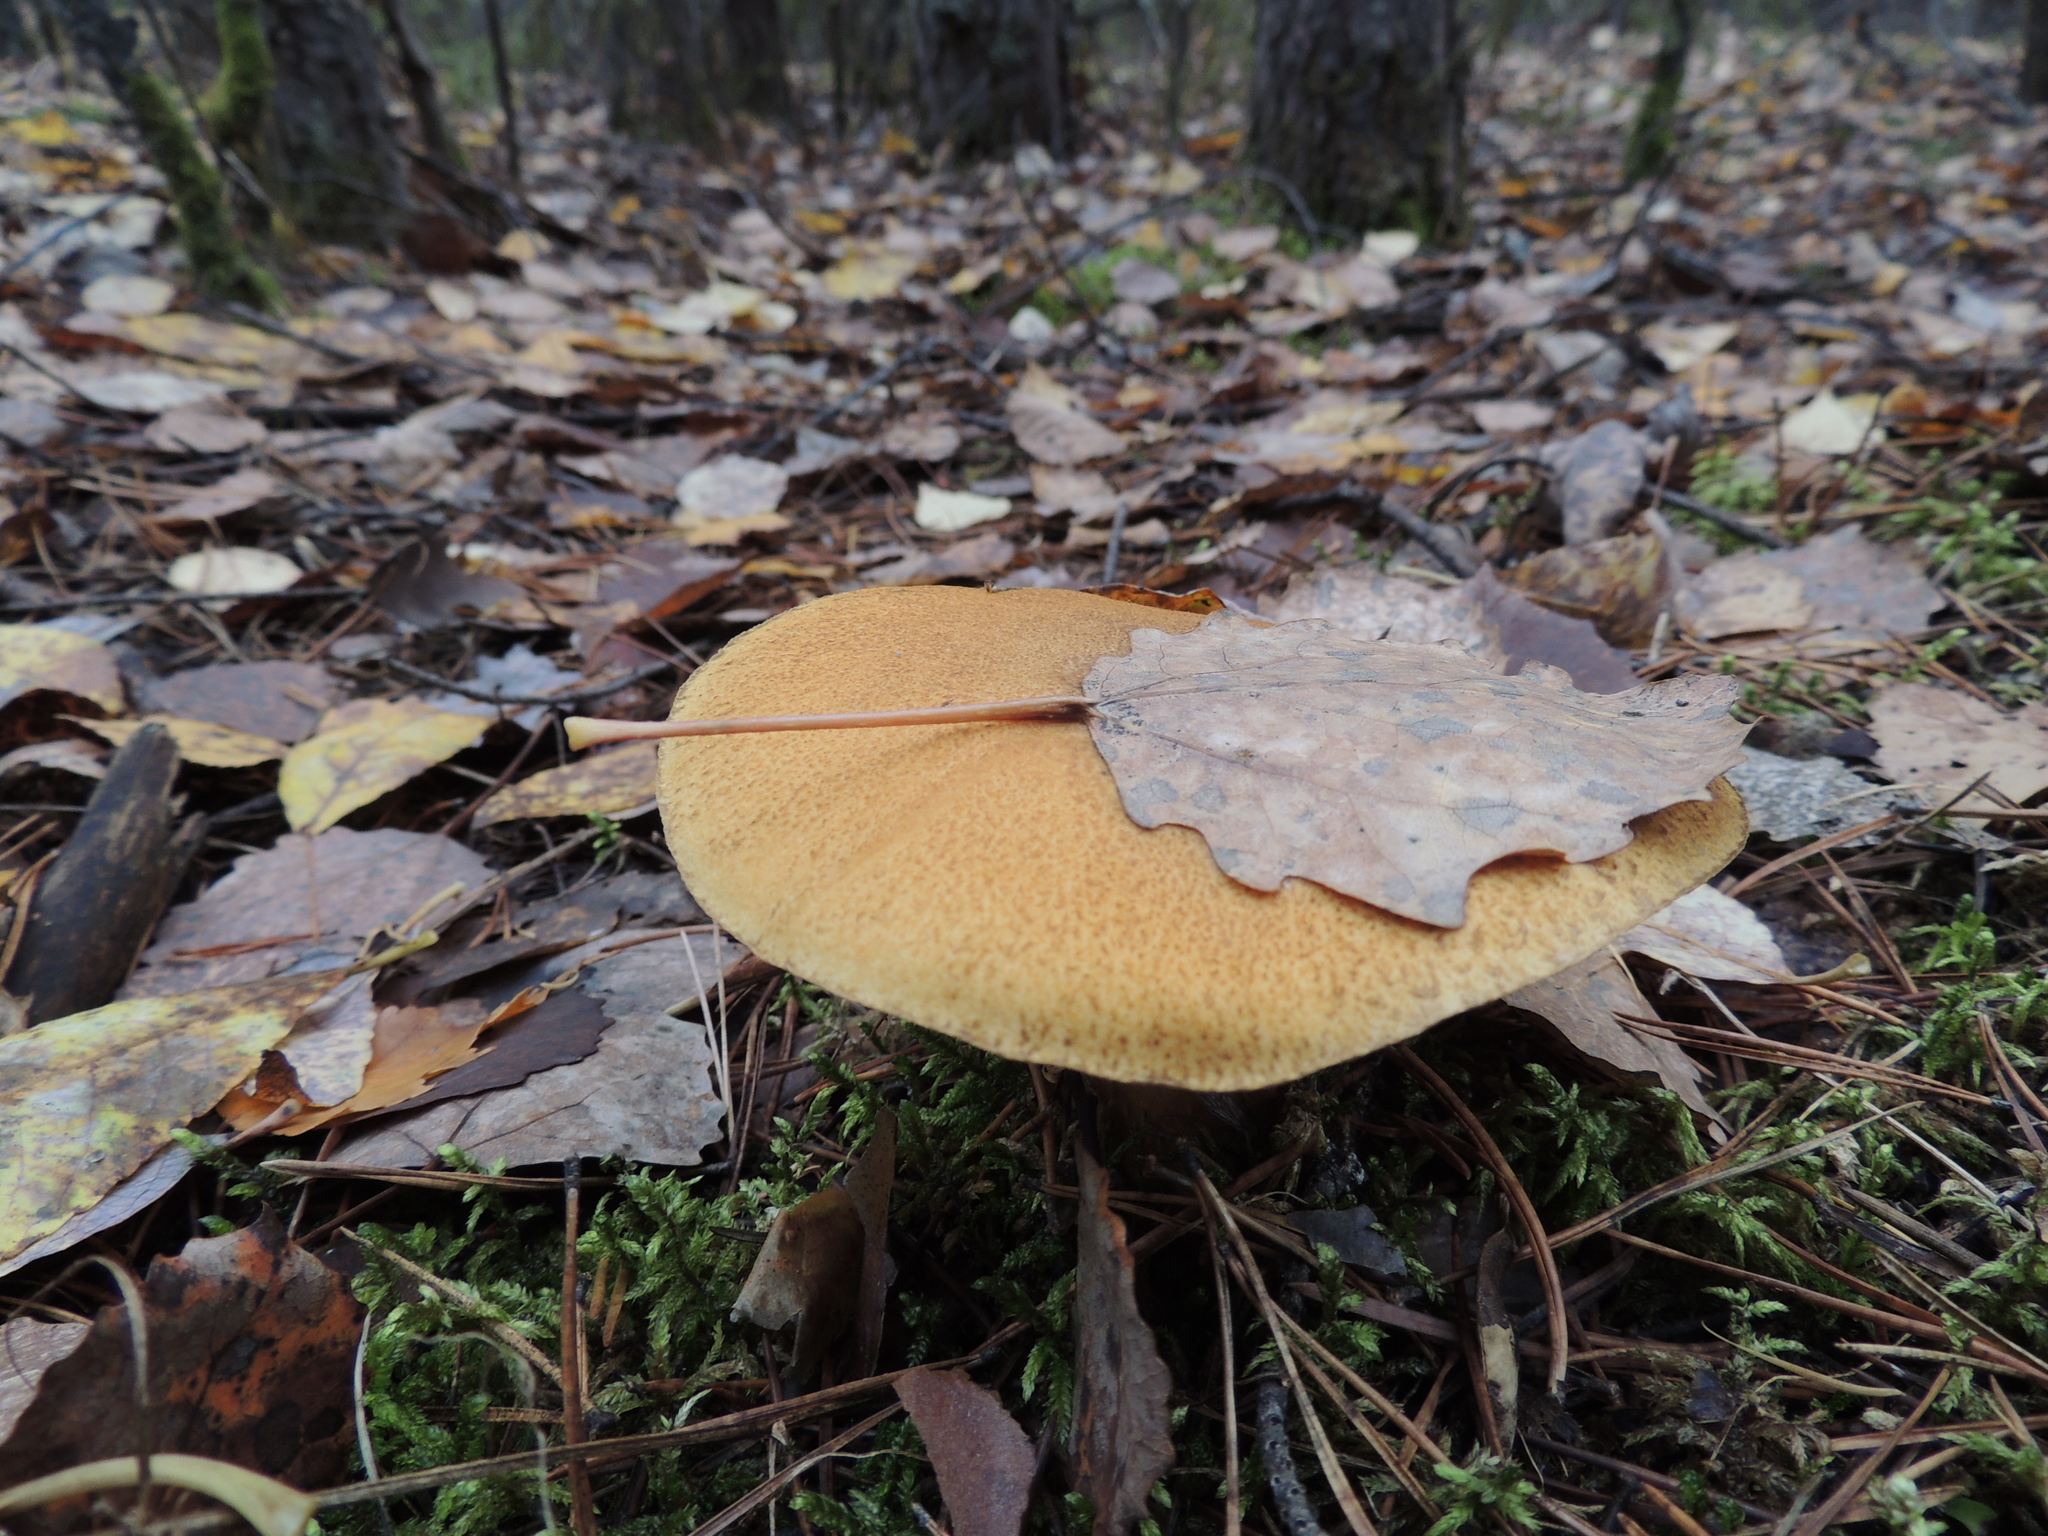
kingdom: Fungi
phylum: Basidiomycota
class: Agaricomycetes
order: Boletales
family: Boletaceae
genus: Xerocomus
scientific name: Xerocomus subtomentosus
